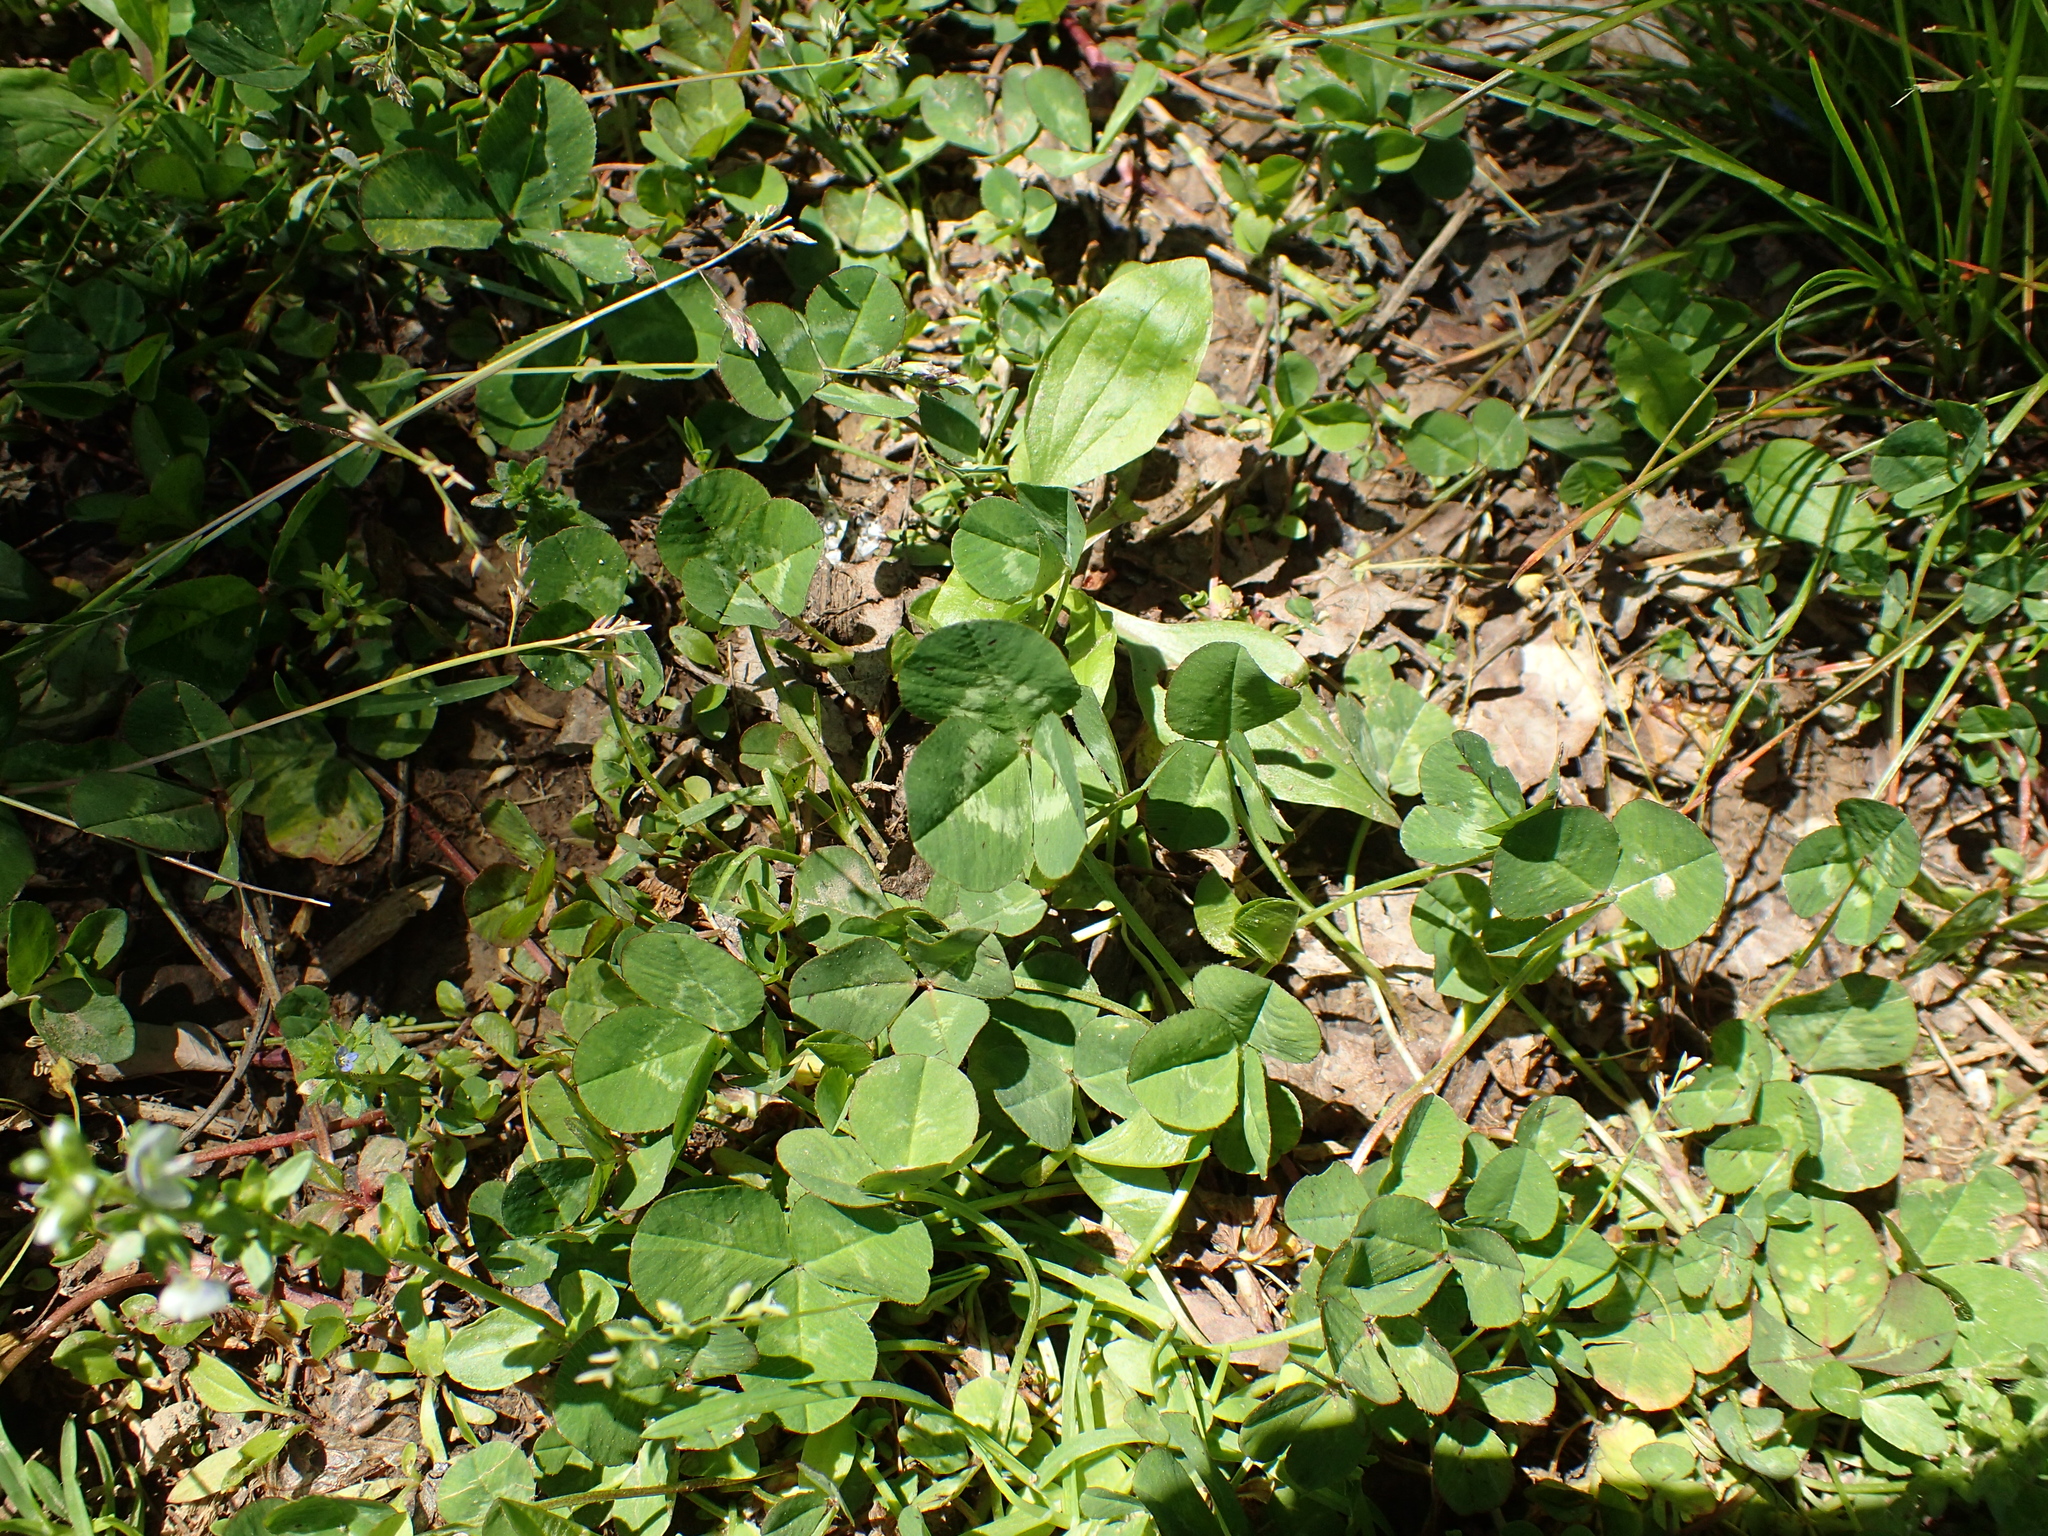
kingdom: Plantae
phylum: Tracheophyta
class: Magnoliopsida
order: Fabales
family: Fabaceae
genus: Trifolium
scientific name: Trifolium repens
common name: White clover
